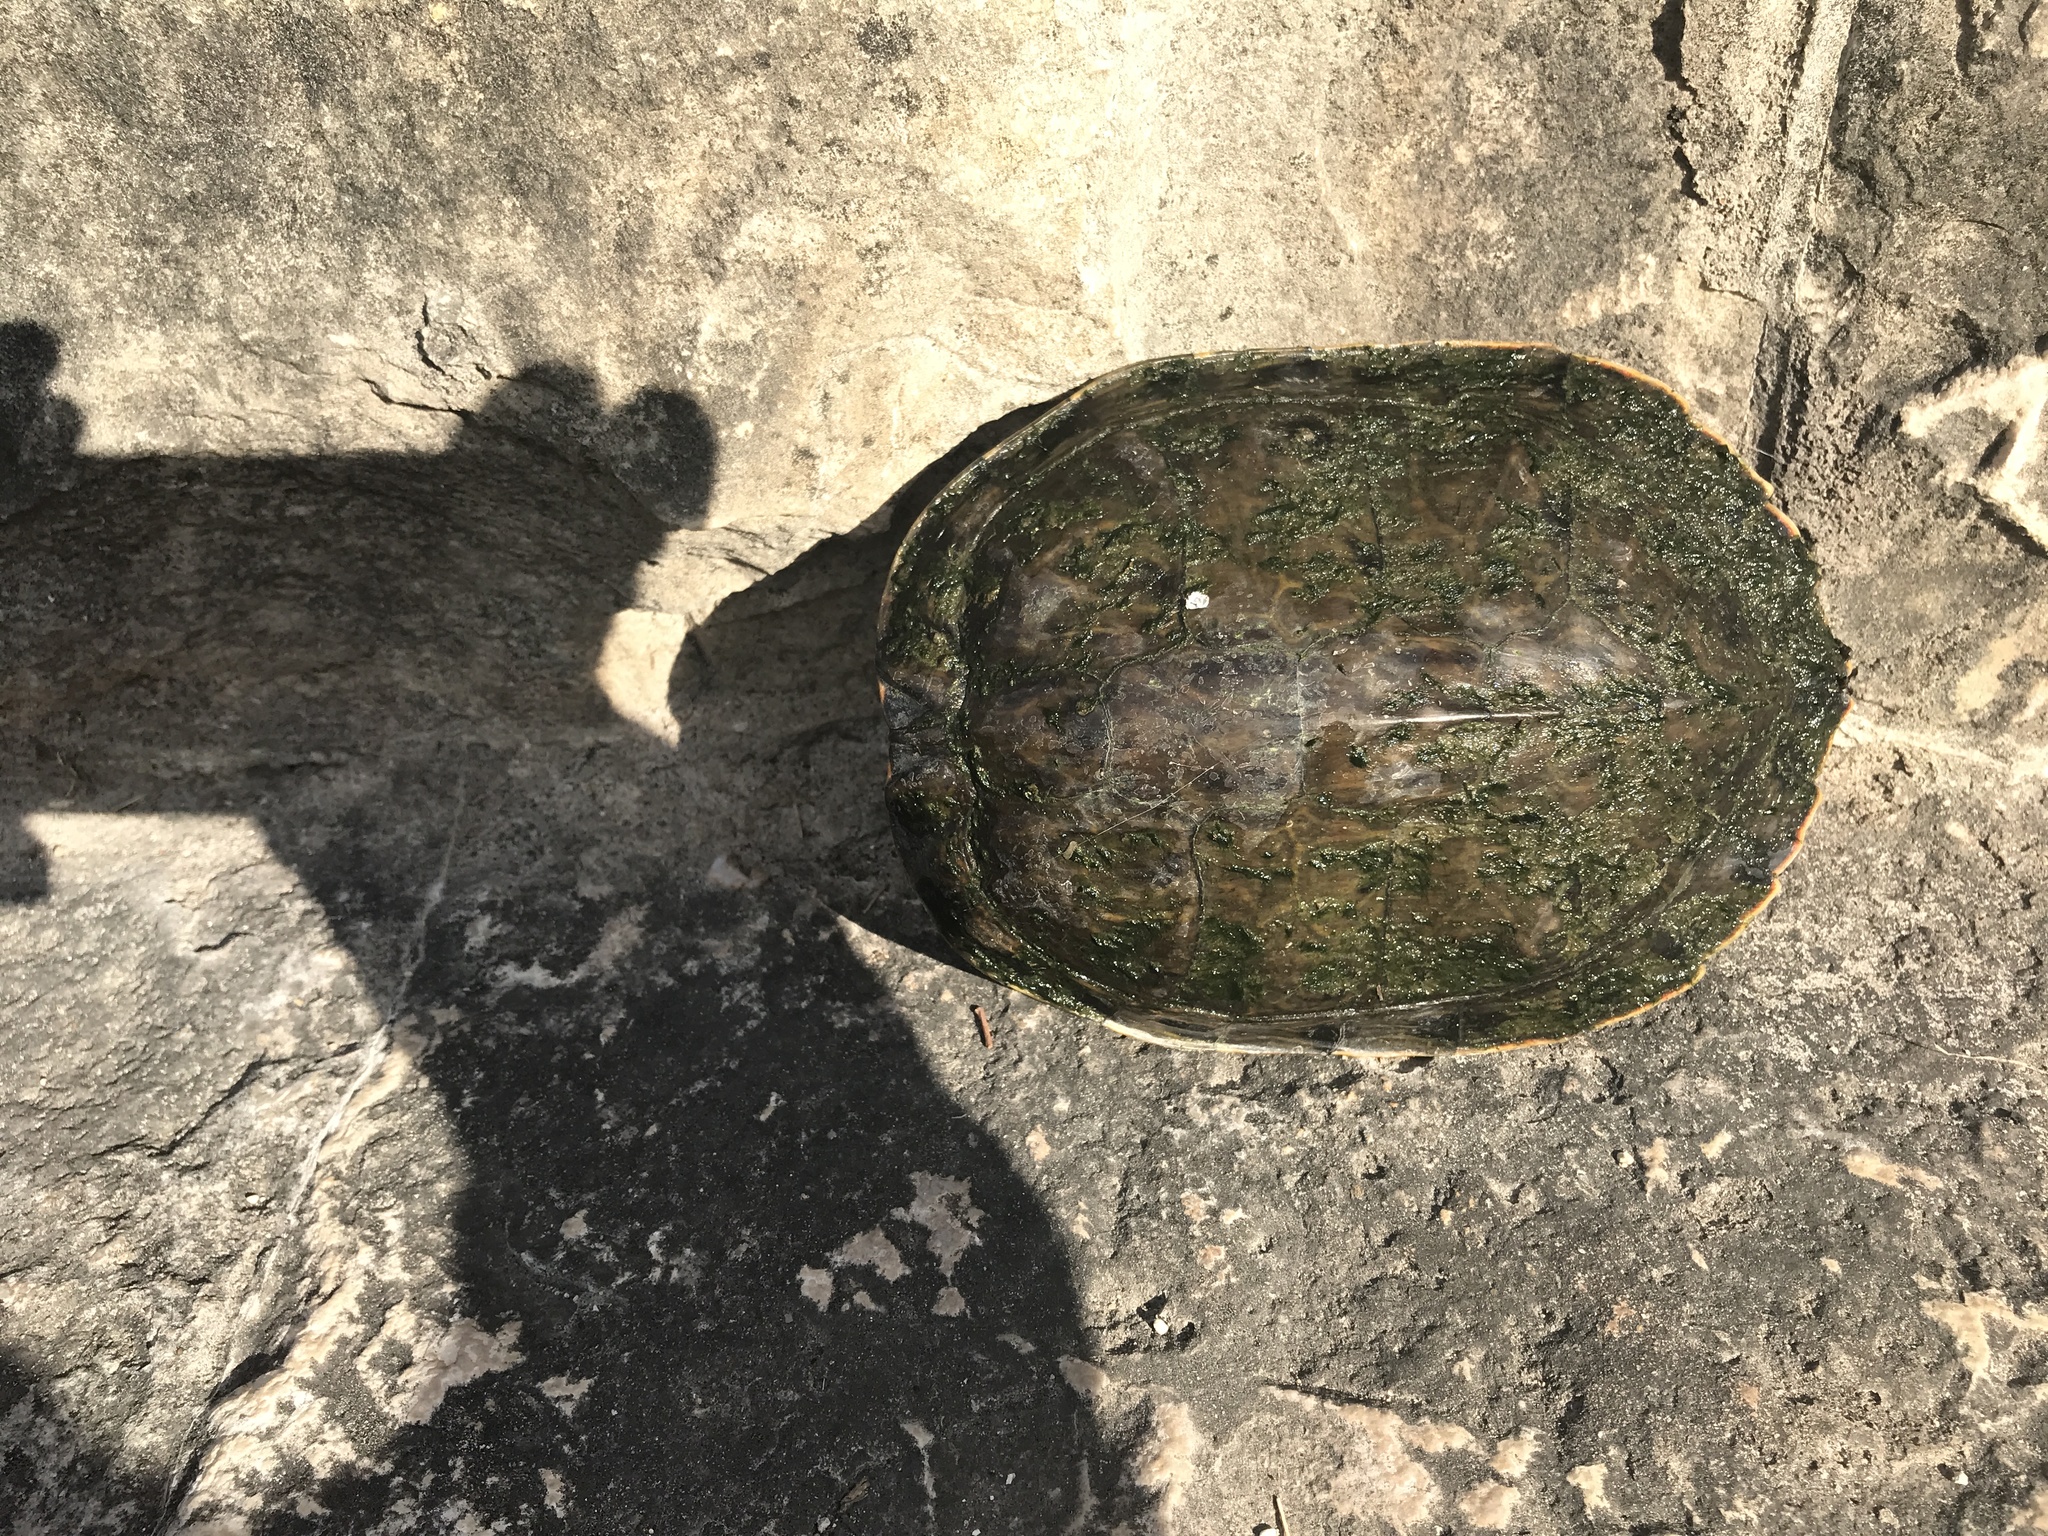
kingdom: Animalia
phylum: Chordata
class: Testudines
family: Emydidae
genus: Pseudemys
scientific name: Pseudemys texana
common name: Texas river cooter
